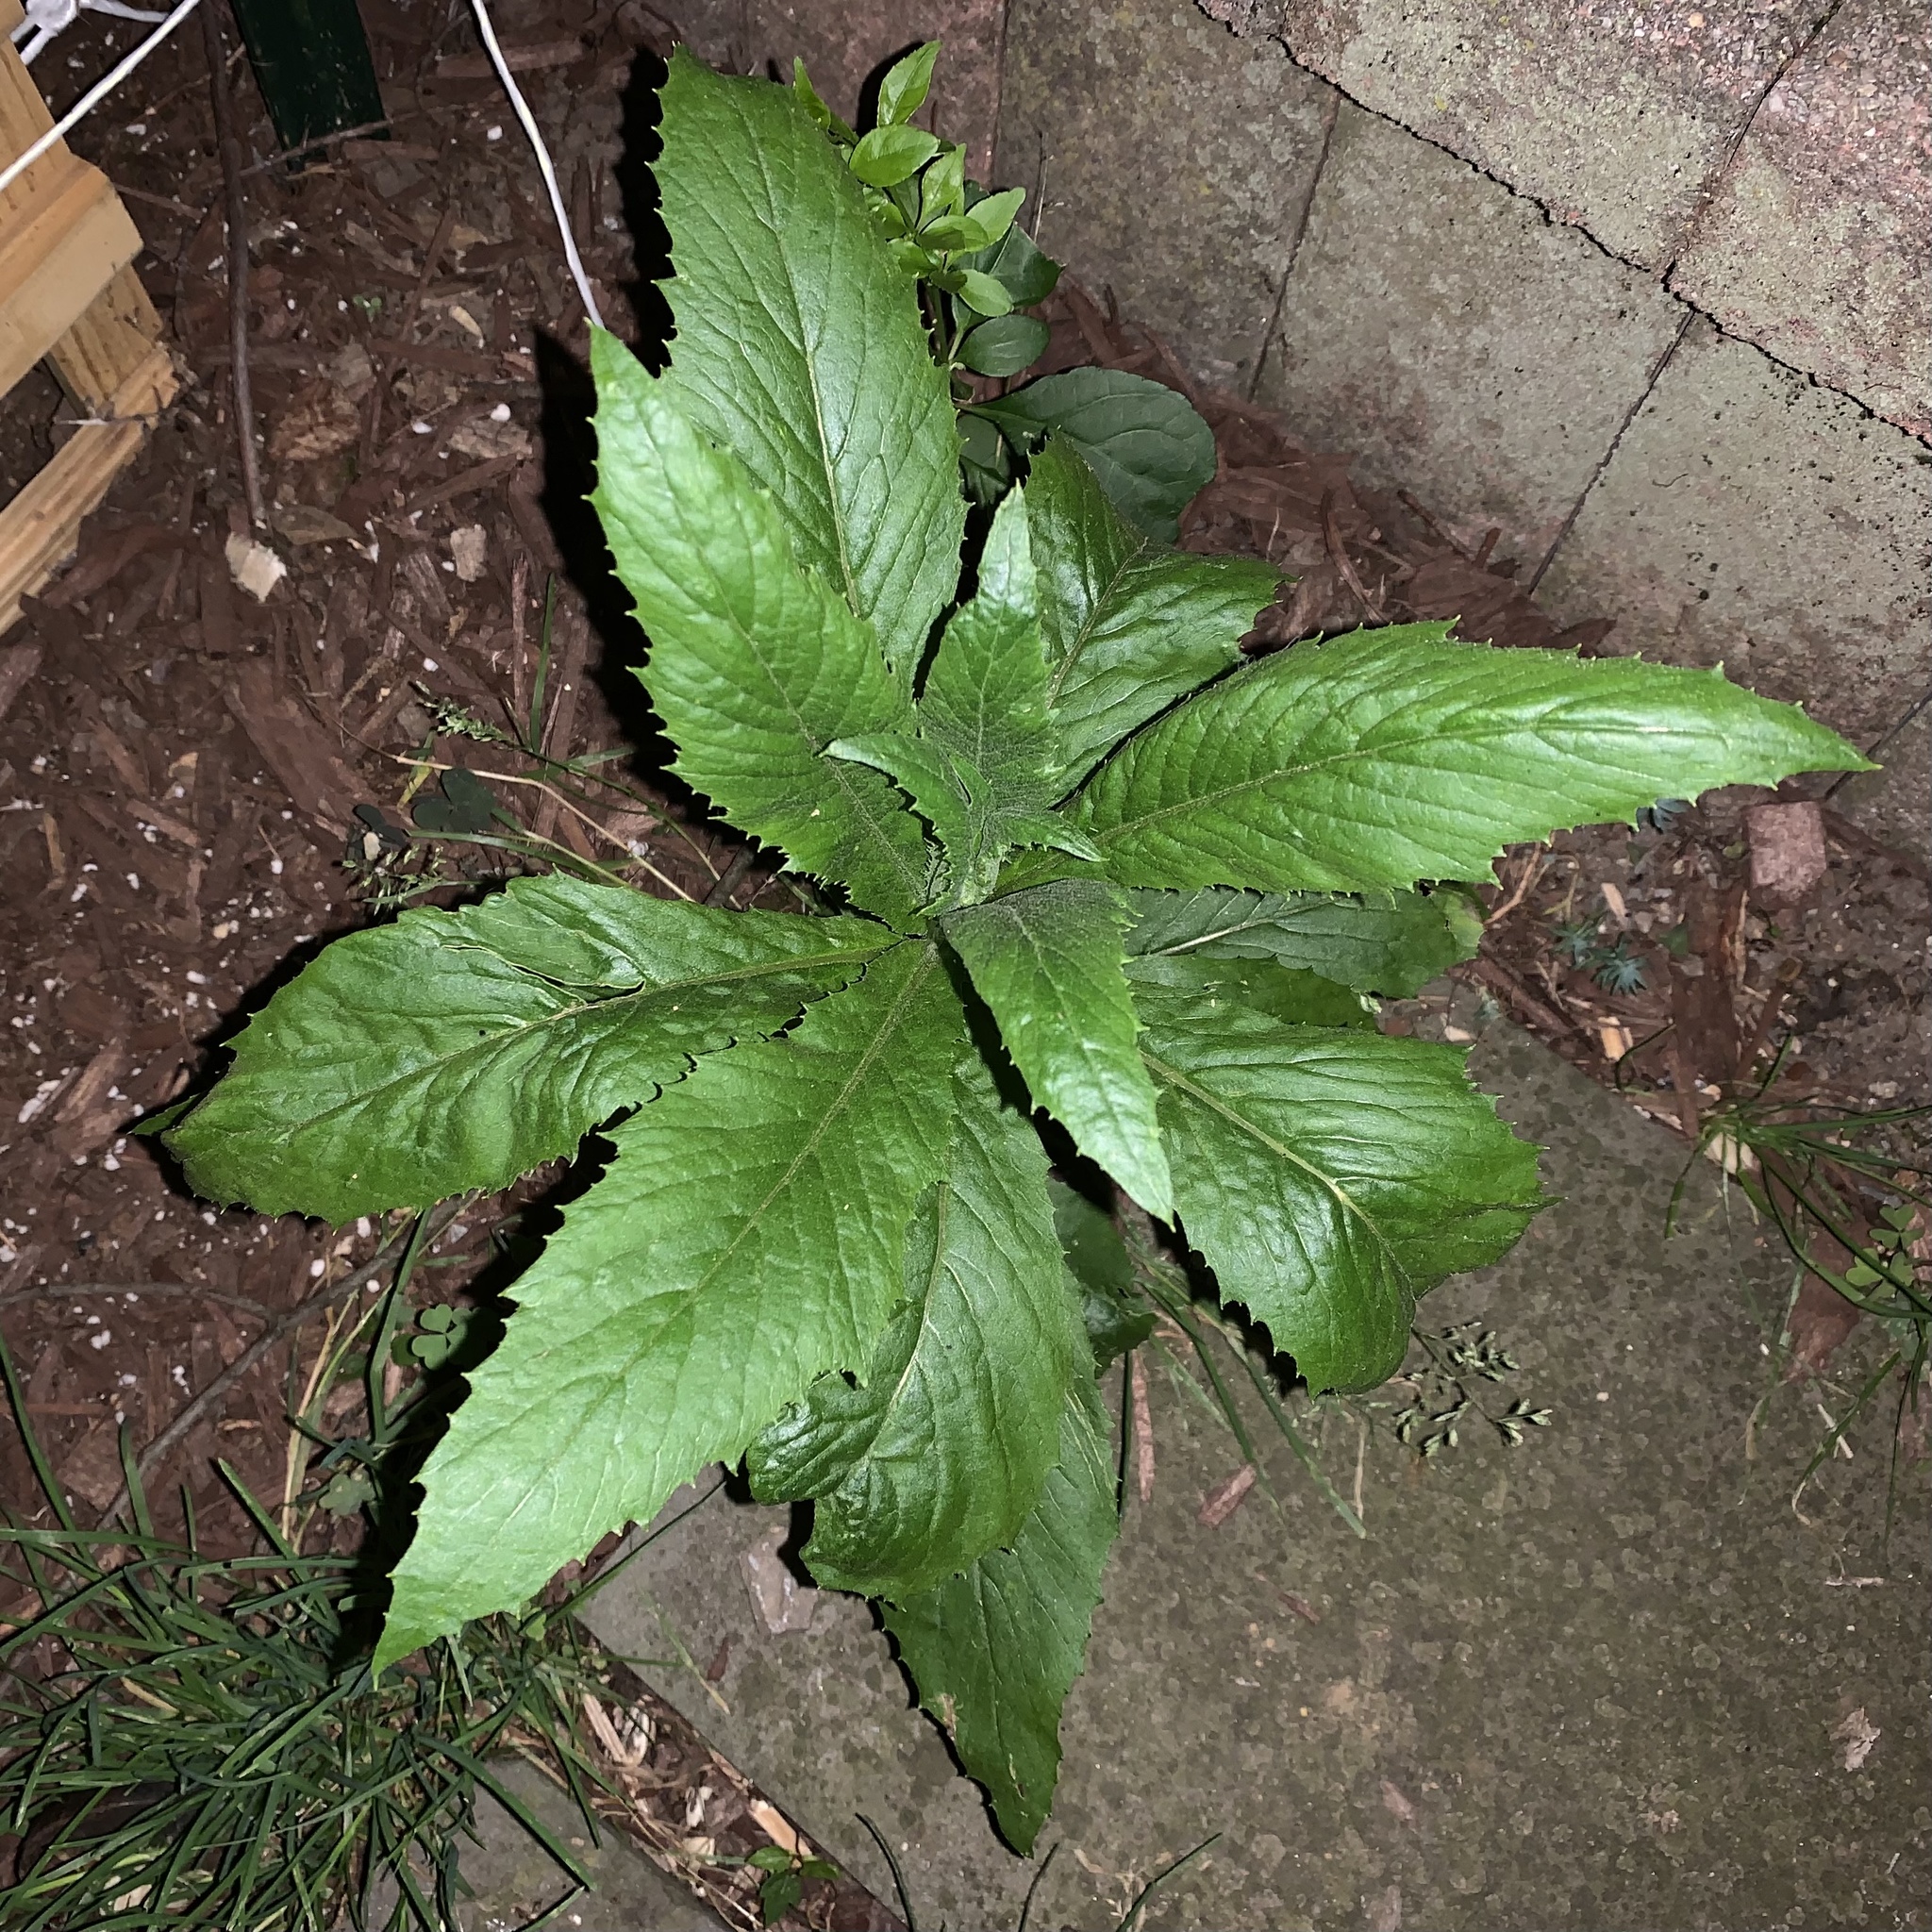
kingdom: Plantae
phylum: Tracheophyta
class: Magnoliopsida
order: Asterales
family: Asteraceae
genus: Erechtites
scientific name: Erechtites hieraciifolius
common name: American burnweed
